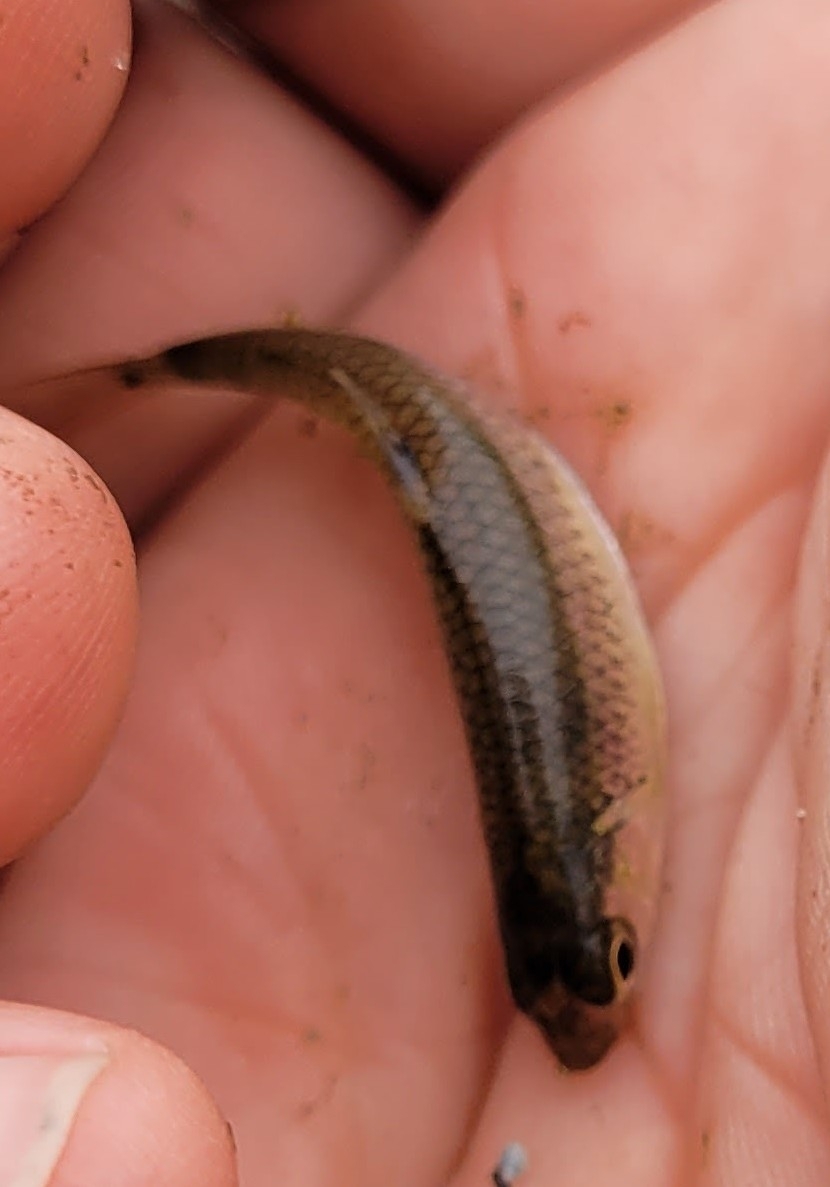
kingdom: Animalia
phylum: Chordata
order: Cypriniformes
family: Cyprinidae
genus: Notropis
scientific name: Notropis
